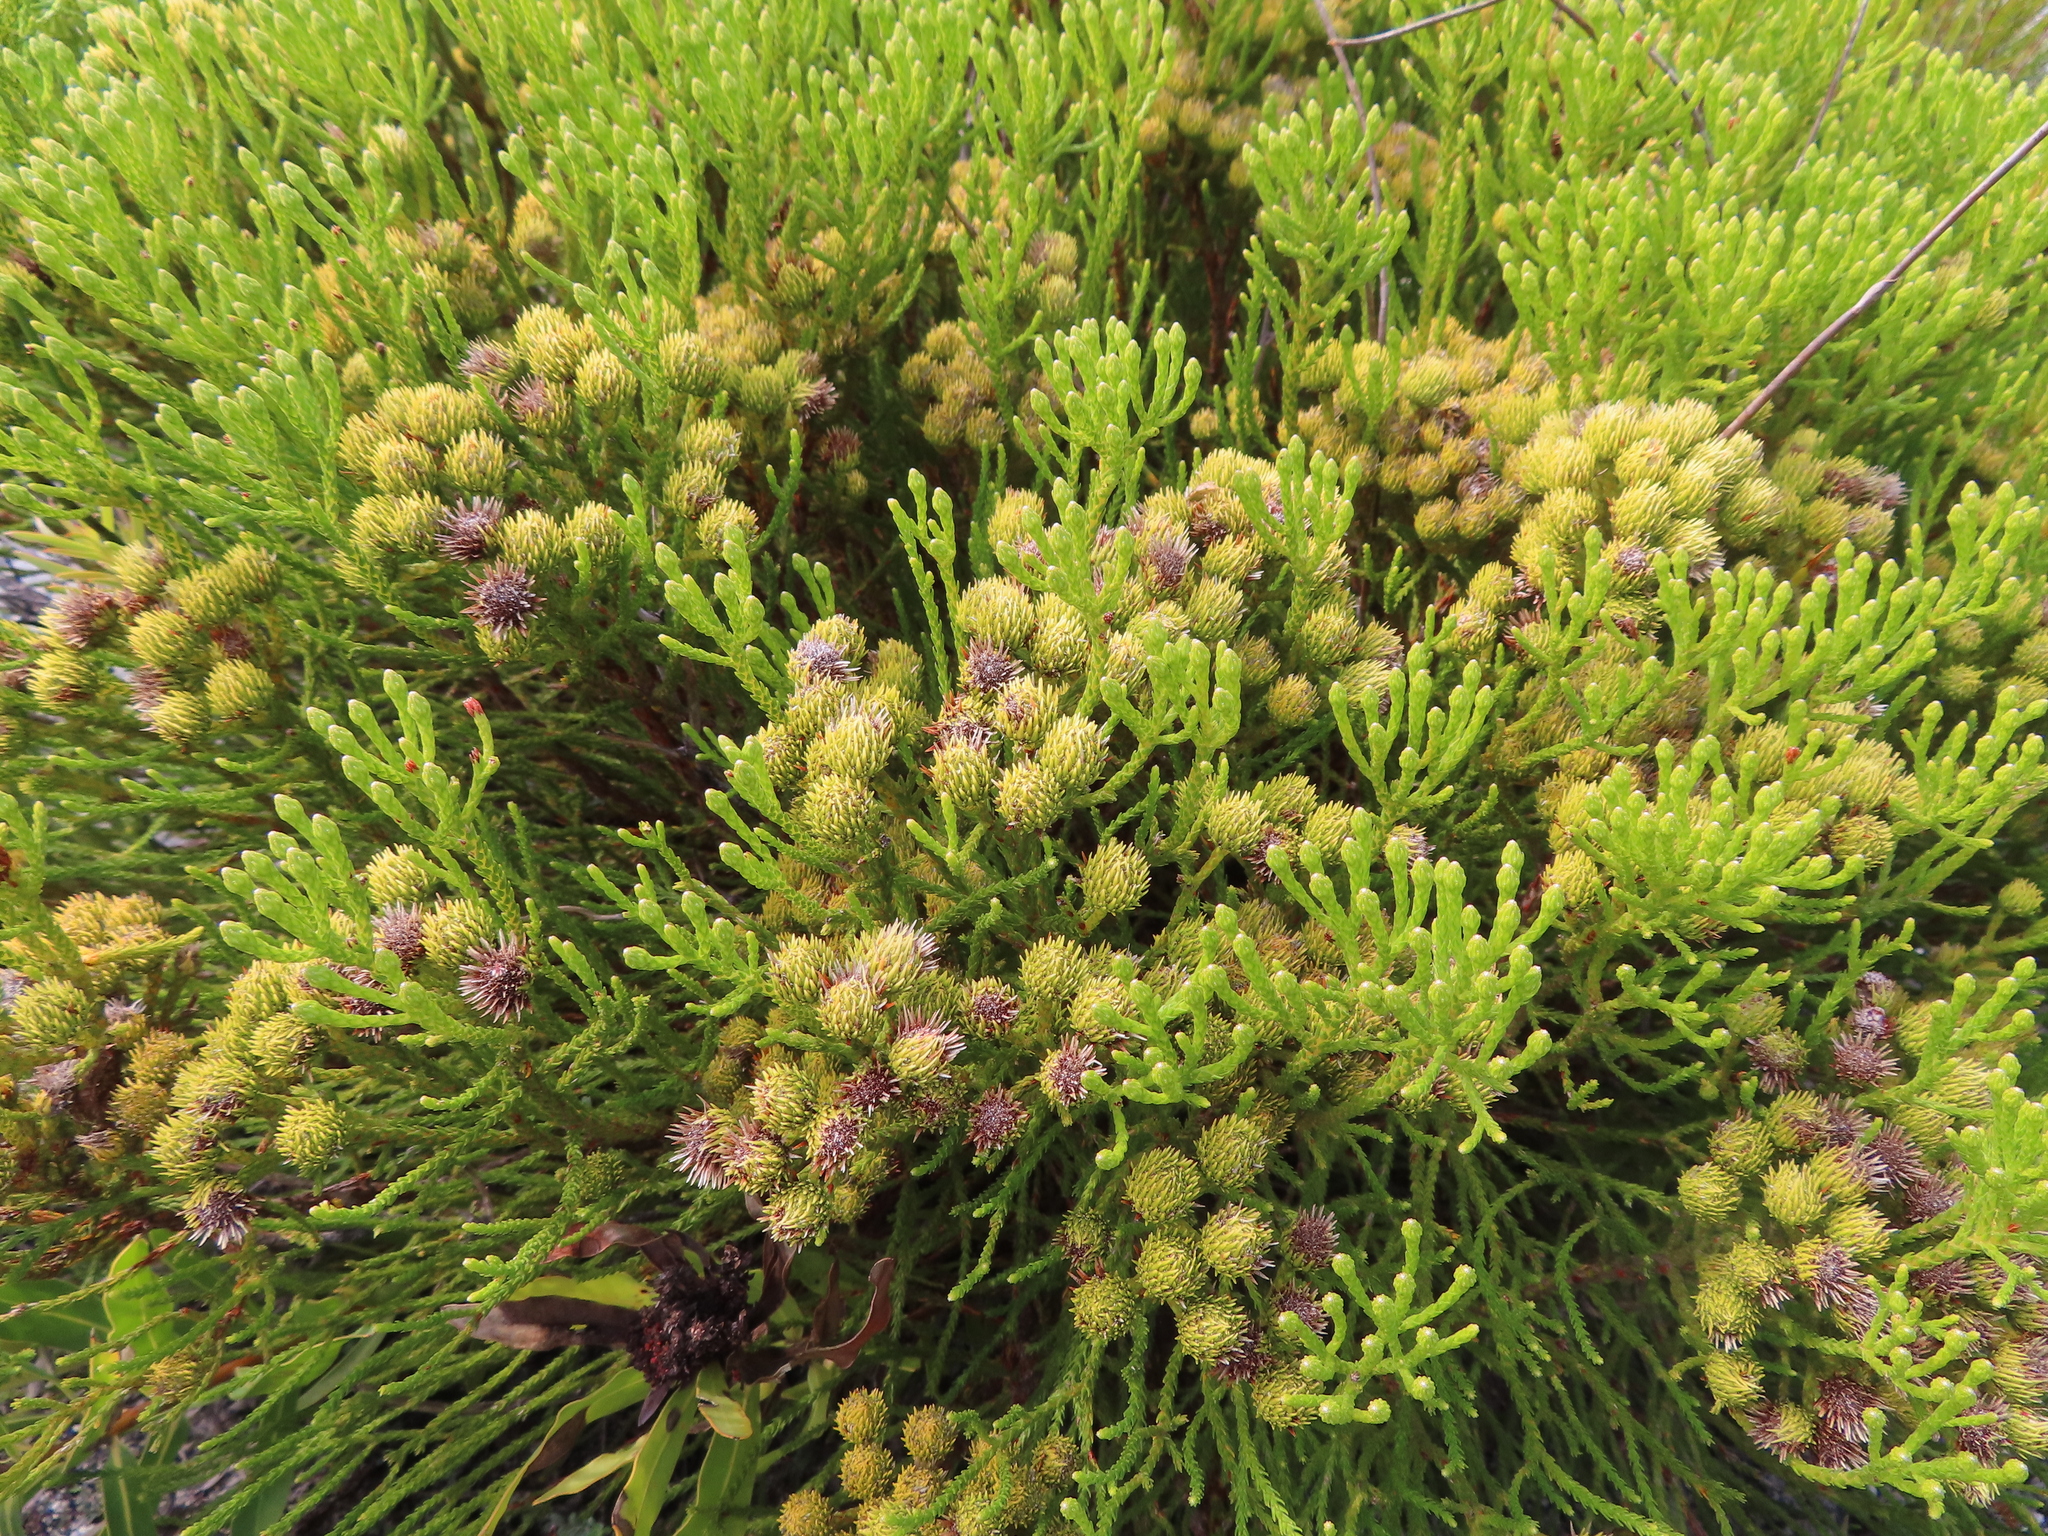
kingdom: Plantae
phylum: Tracheophyta
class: Magnoliopsida
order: Bruniales
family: Bruniaceae
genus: Brunia
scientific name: Brunia paleacea
